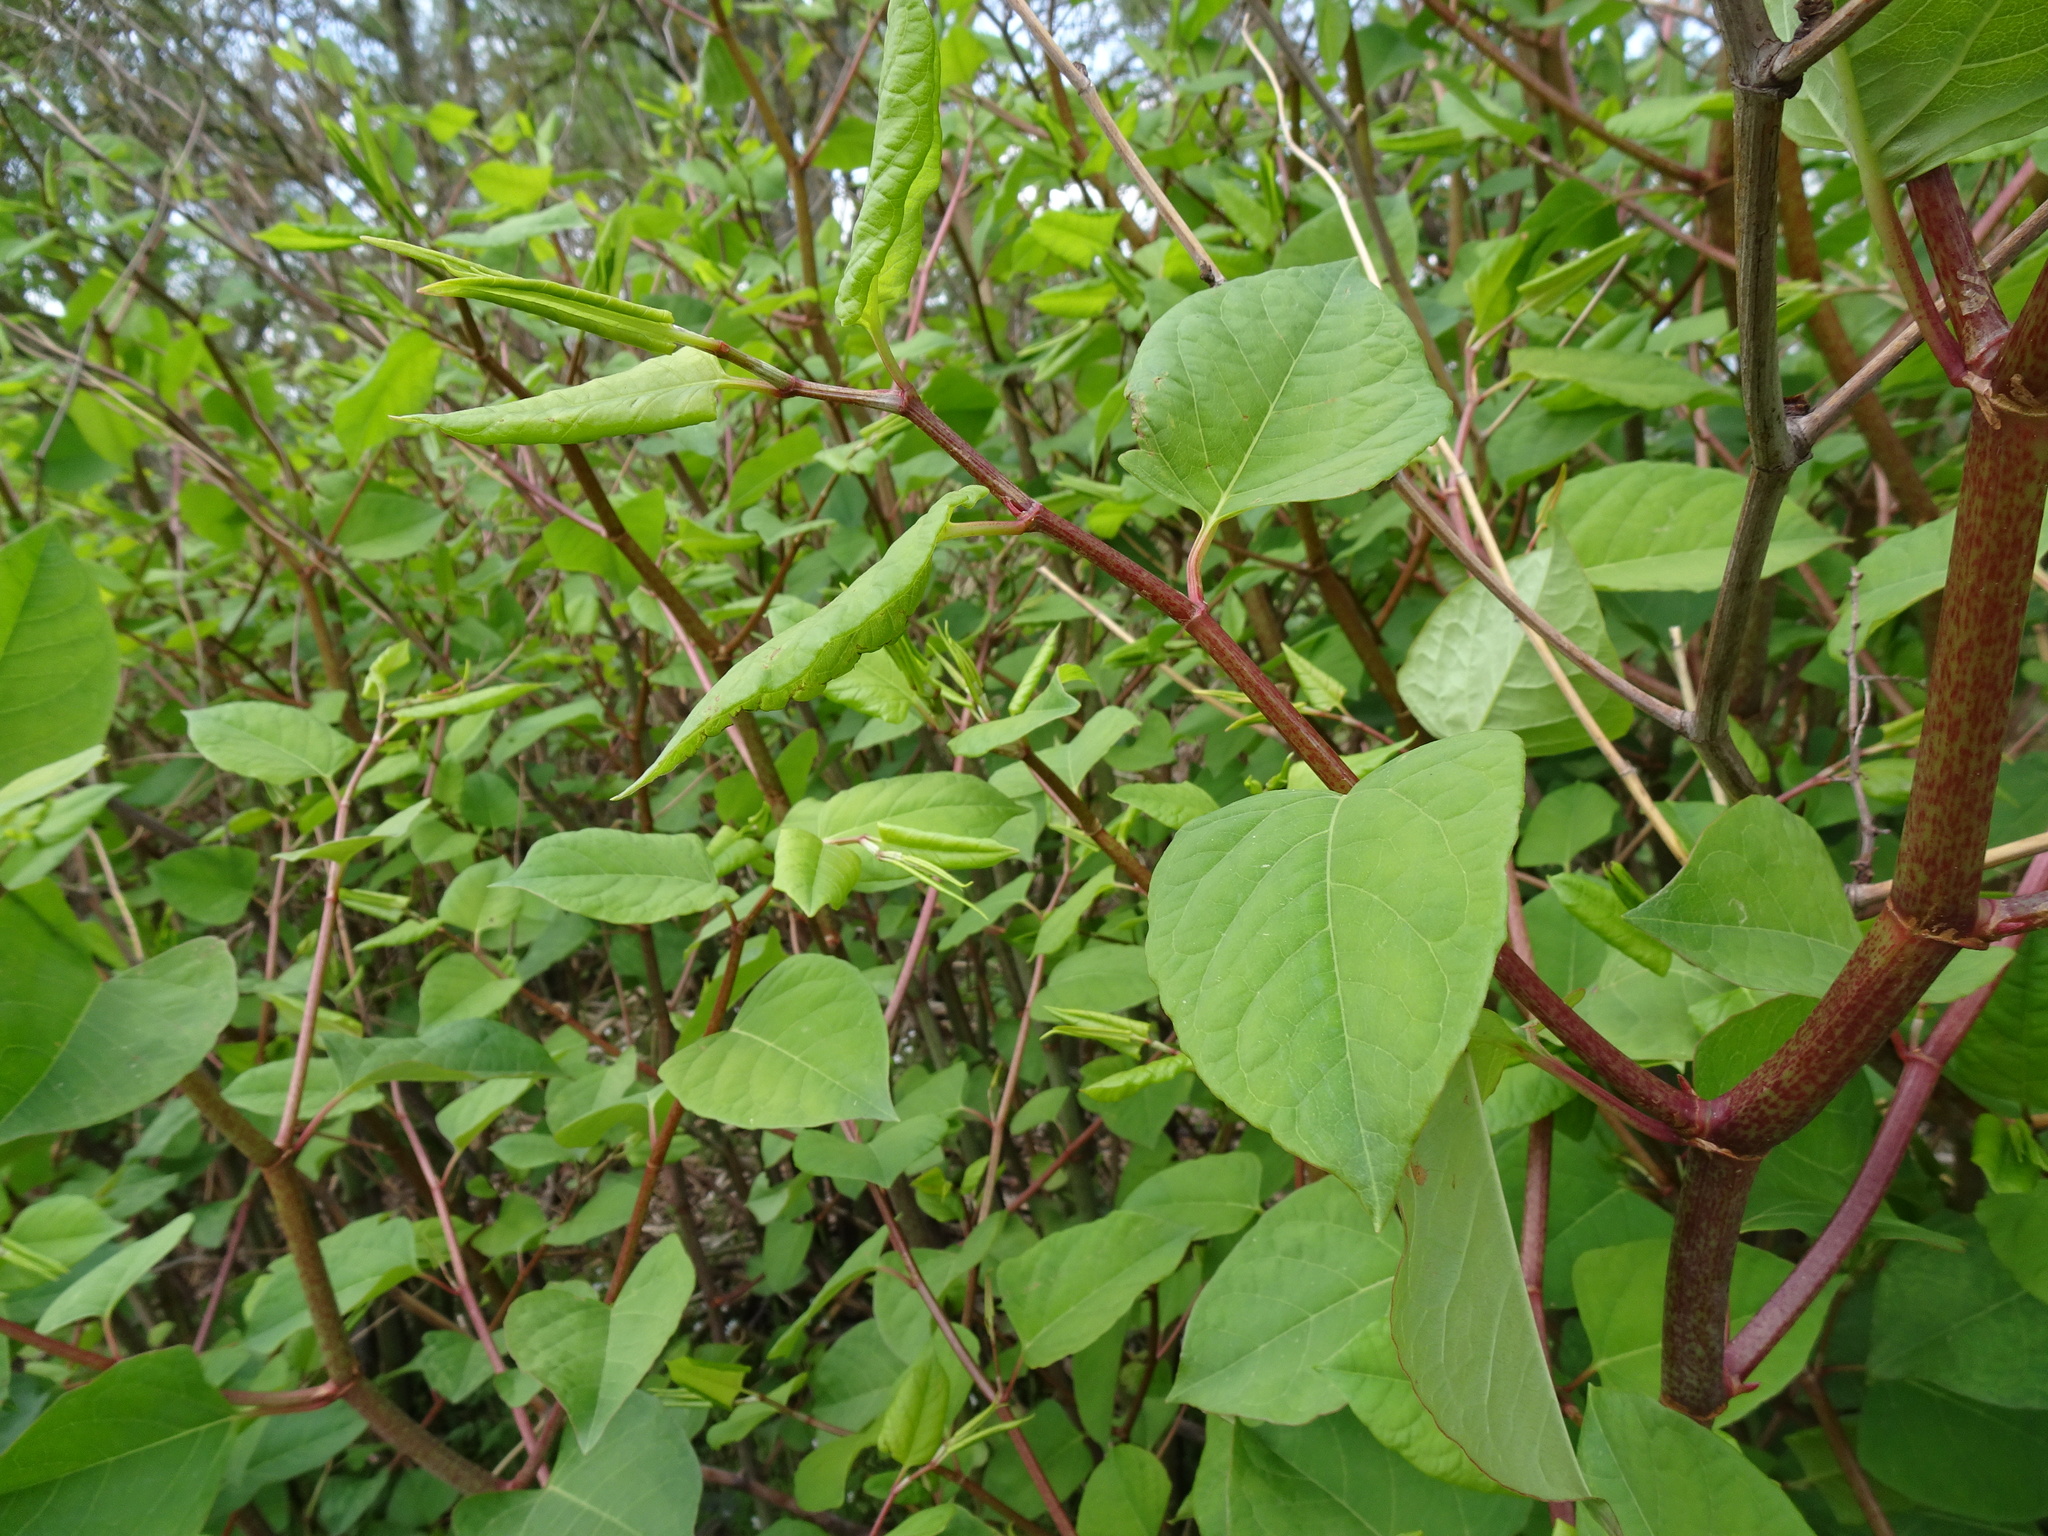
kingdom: Plantae
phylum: Tracheophyta
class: Magnoliopsida
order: Caryophyllales
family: Polygonaceae
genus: Reynoutria
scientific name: Reynoutria japonica
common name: Japanese knotweed
